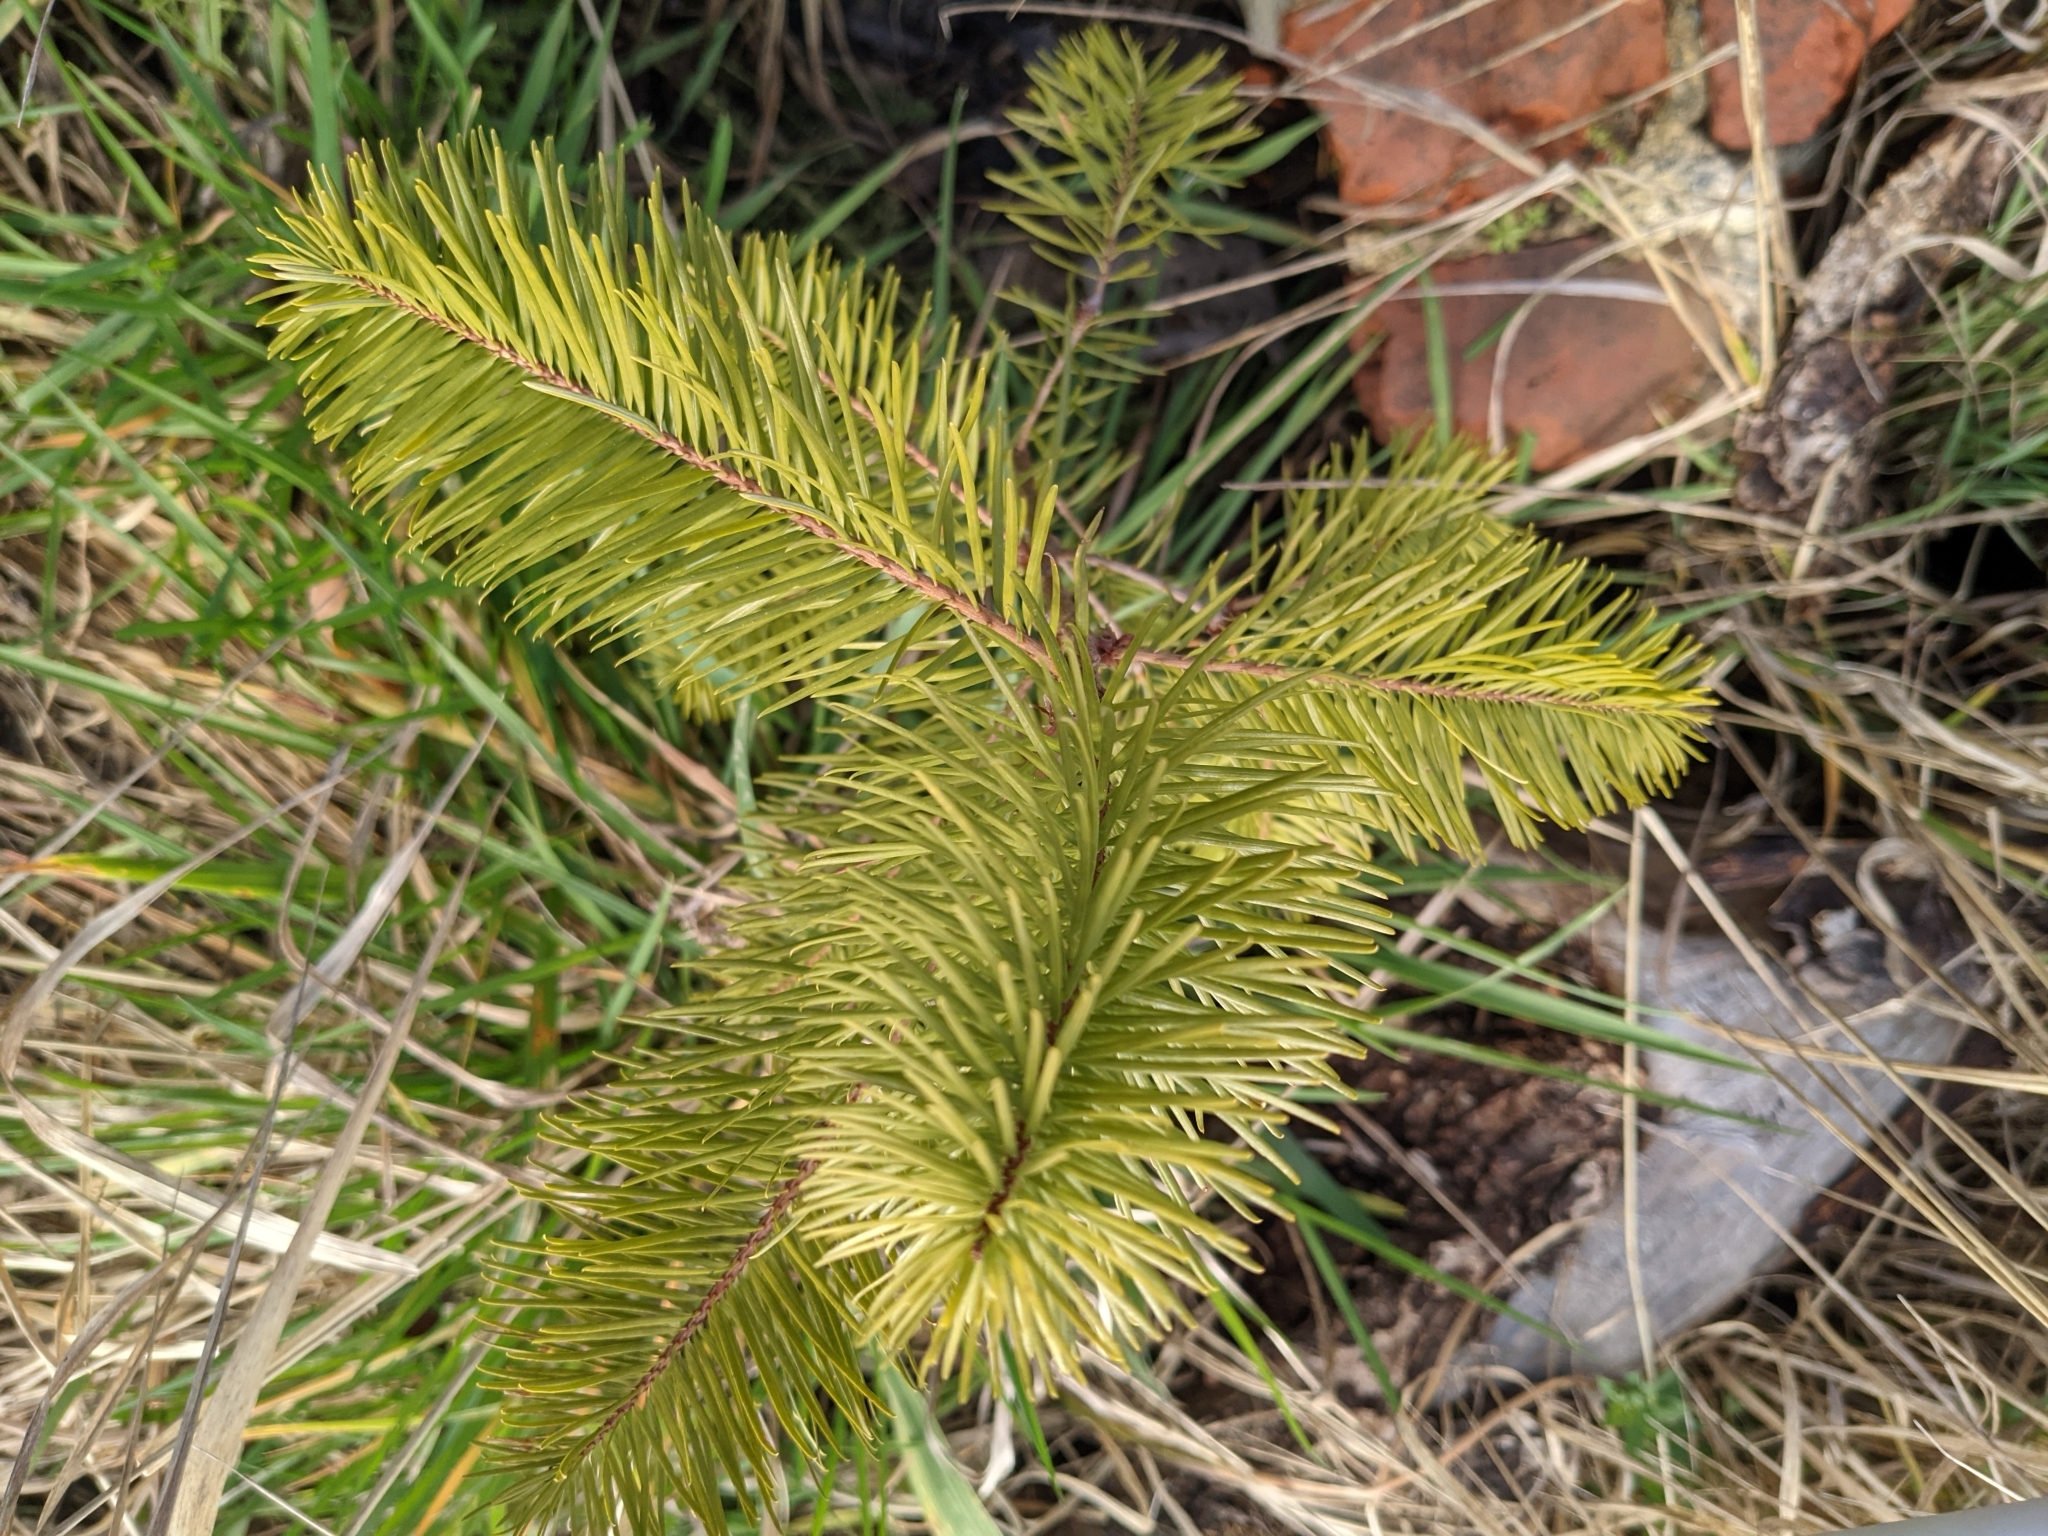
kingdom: Plantae
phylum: Tracheophyta
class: Pinopsida
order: Pinales
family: Pinaceae
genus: Pseudotsuga
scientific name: Pseudotsuga menziesii
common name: Douglas fir
